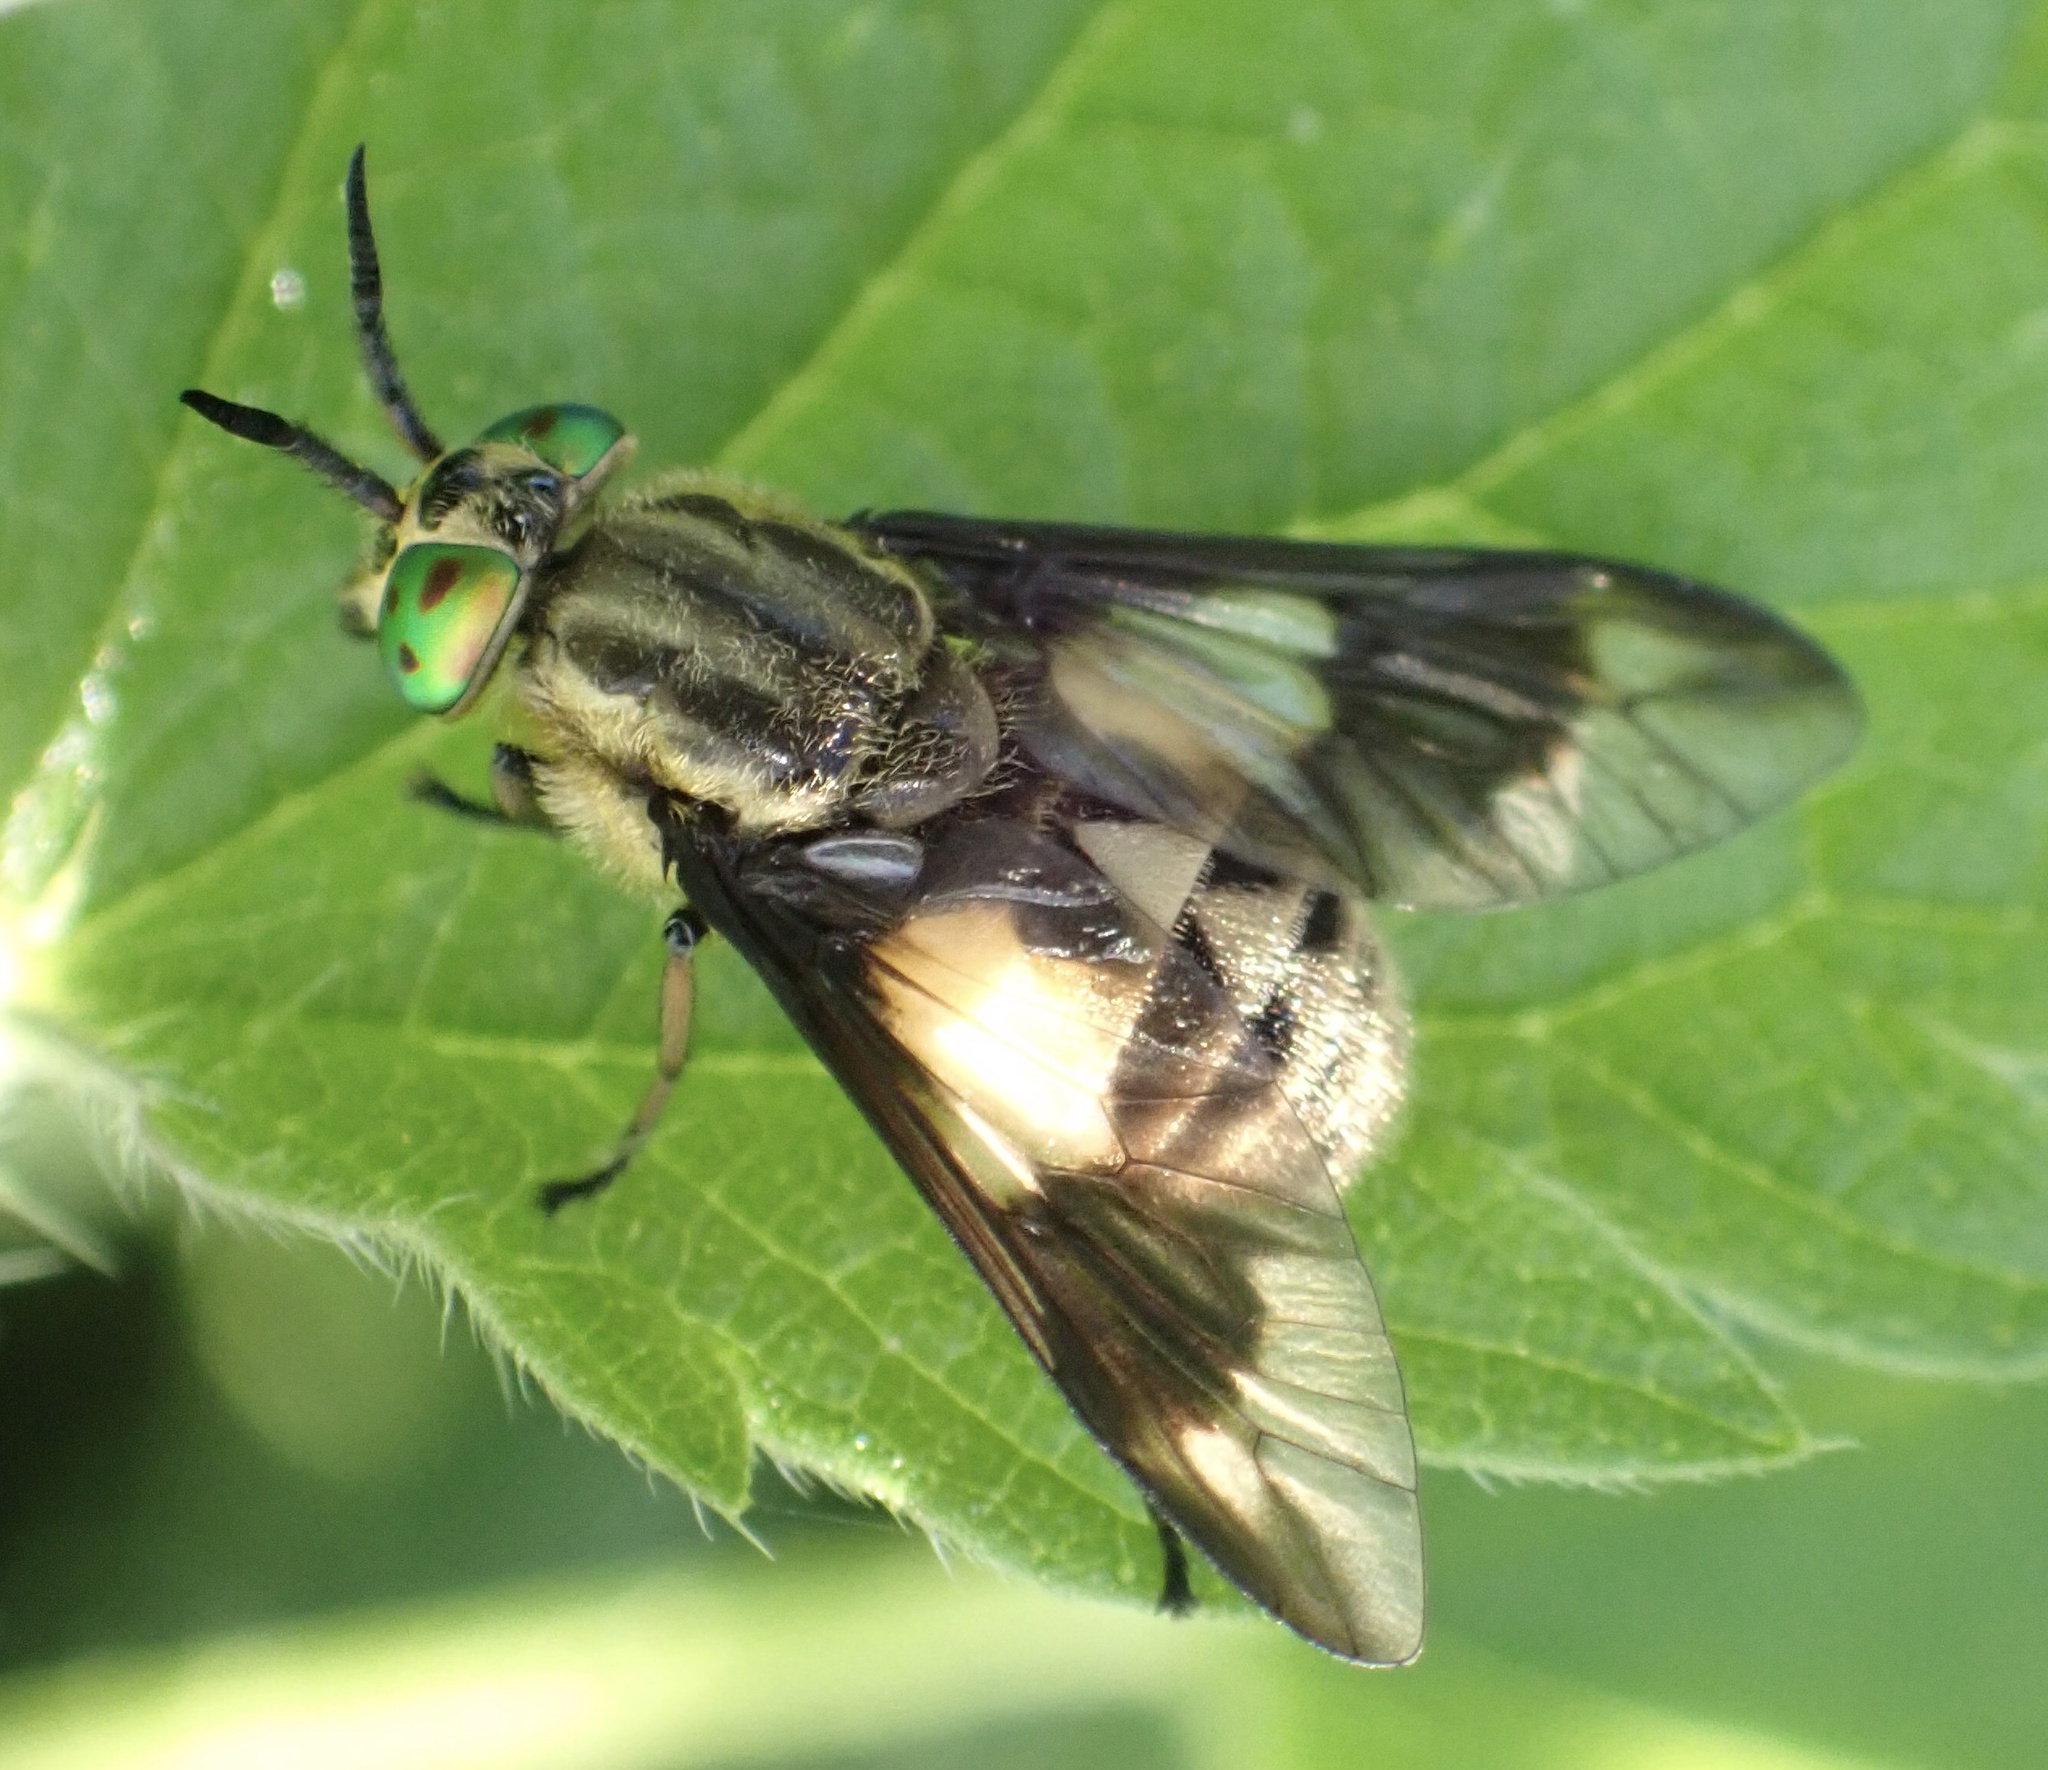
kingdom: Animalia
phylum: Arthropoda
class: Insecta
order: Diptera
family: Tabanidae
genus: Chrysops
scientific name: Chrysops relictus
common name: Twin-lobed deerfly
